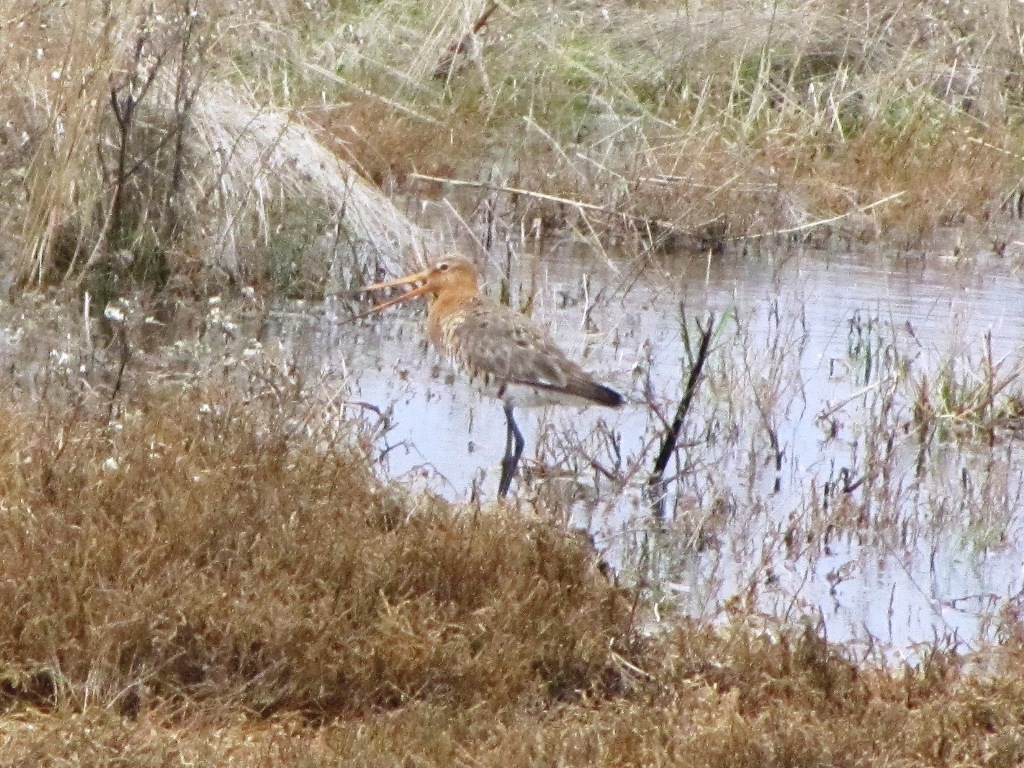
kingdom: Animalia
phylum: Chordata
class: Aves
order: Charadriiformes
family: Scolopacidae
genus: Limosa
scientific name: Limosa limosa
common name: Black-tailed godwit
